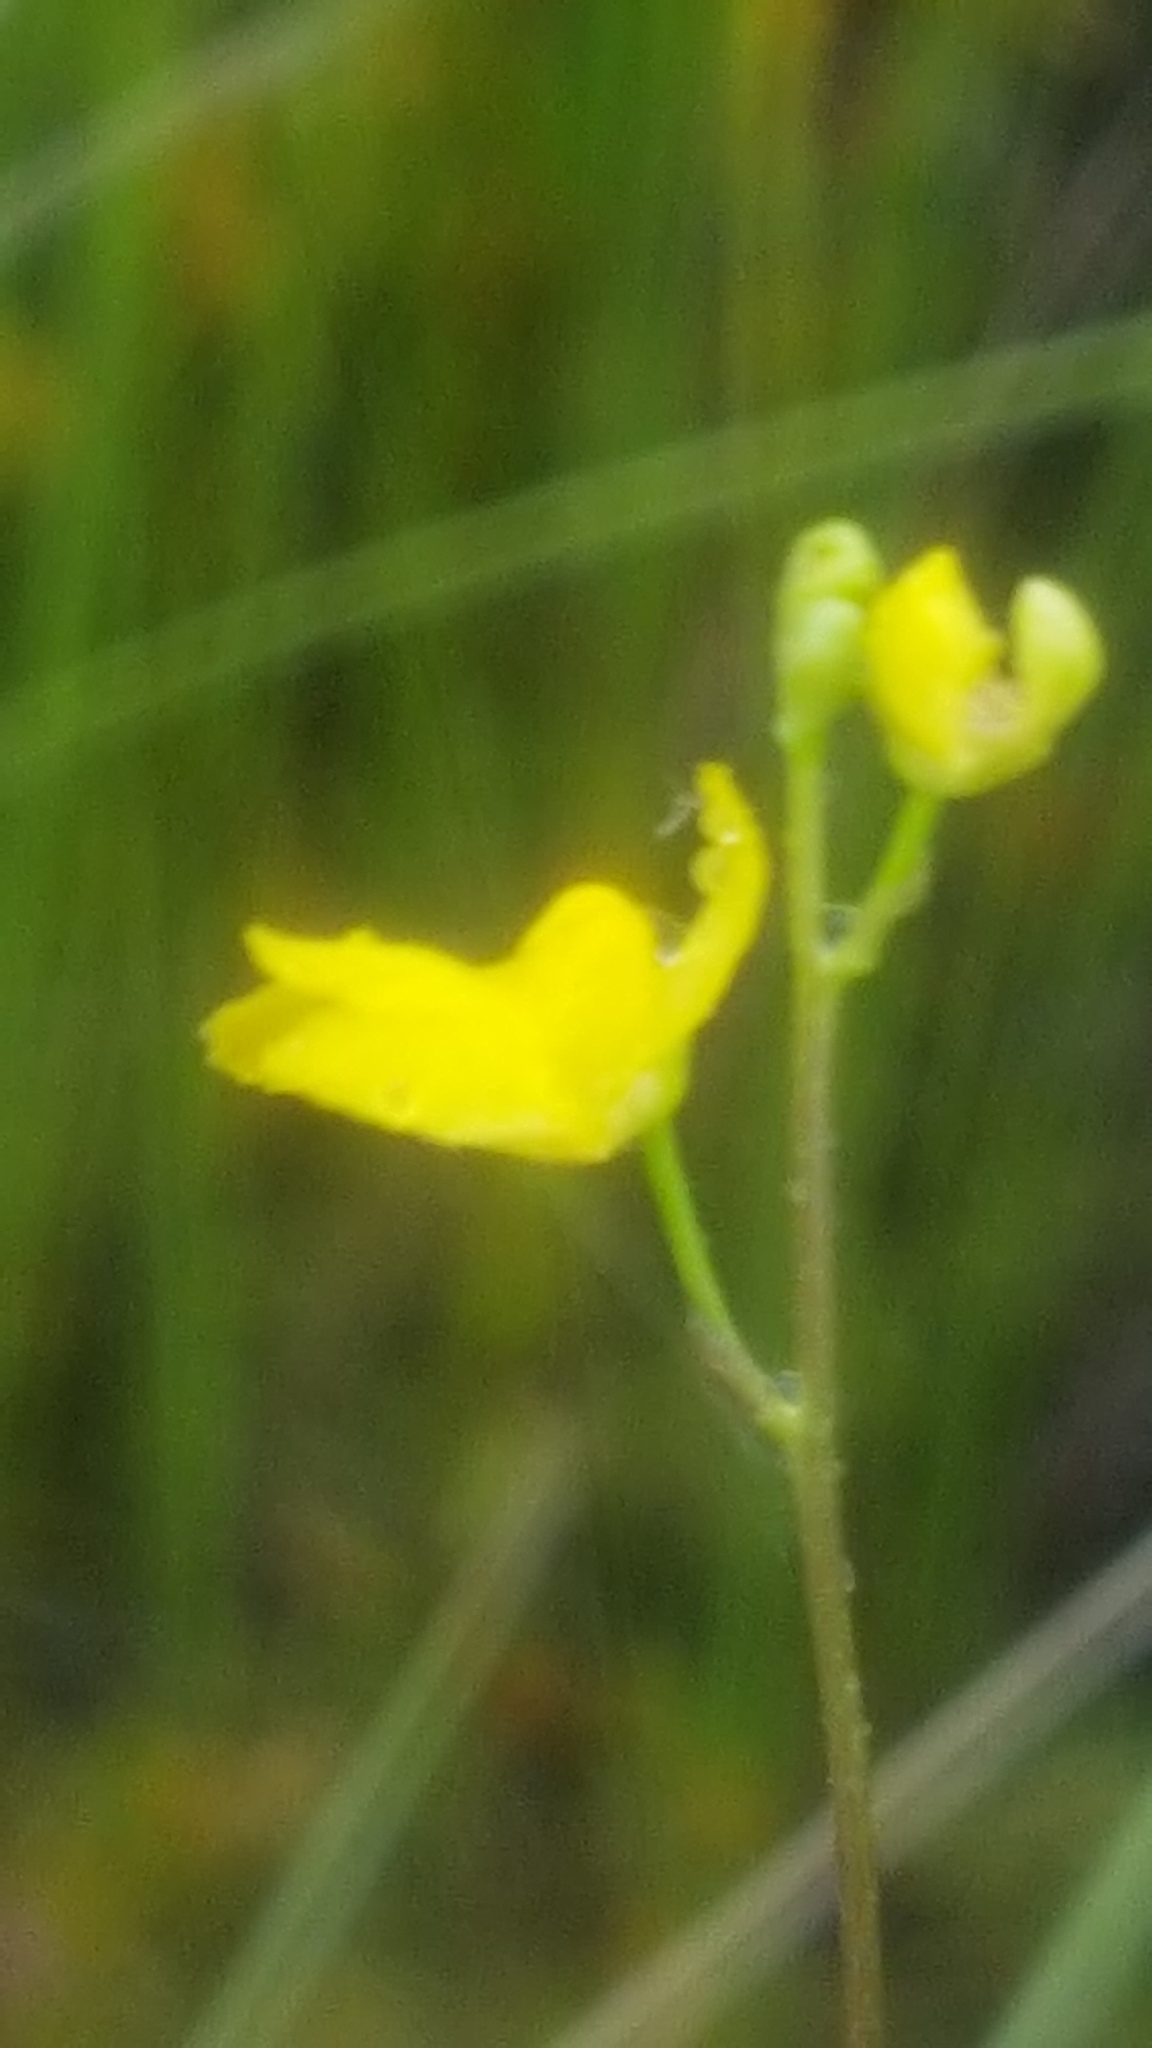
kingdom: Plantae
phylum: Tracheophyta
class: Magnoliopsida
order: Lamiales
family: Lentibulariaceae
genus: Utricularia
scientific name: Utricularia geminiscapa
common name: Hidden-fruit bladderwort
